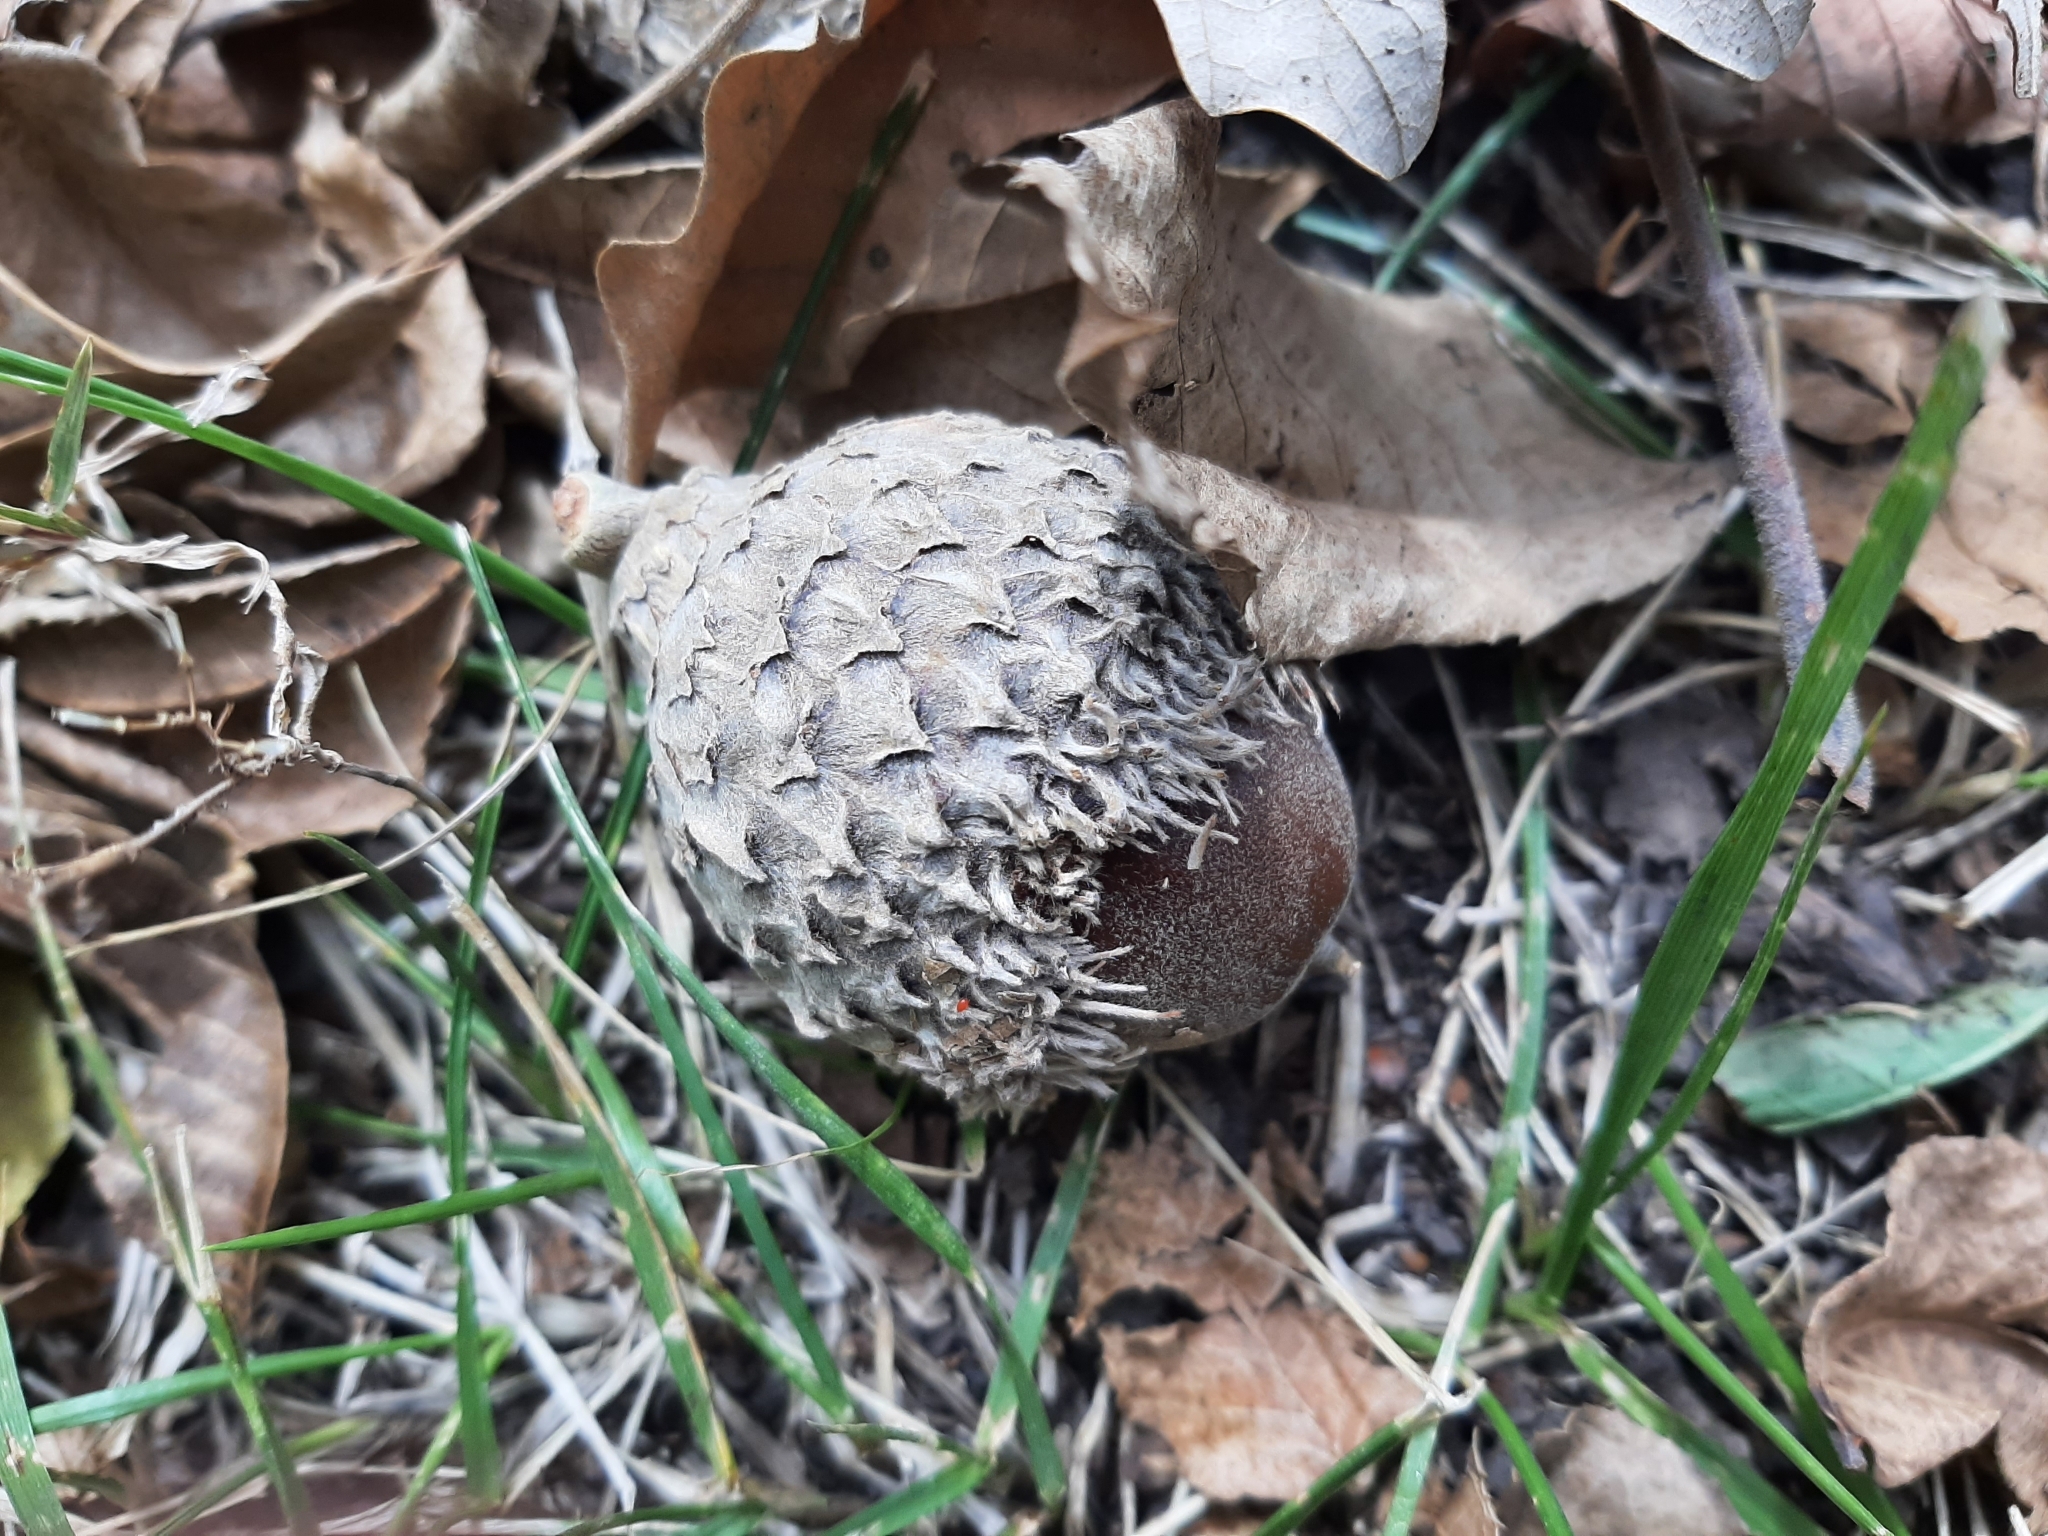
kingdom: Plantae
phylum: Tracheophyta
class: Magnoliopsida
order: Fagales
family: Fagaceae
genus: Quercus
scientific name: Quercus macrocarpa
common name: Bur oak
